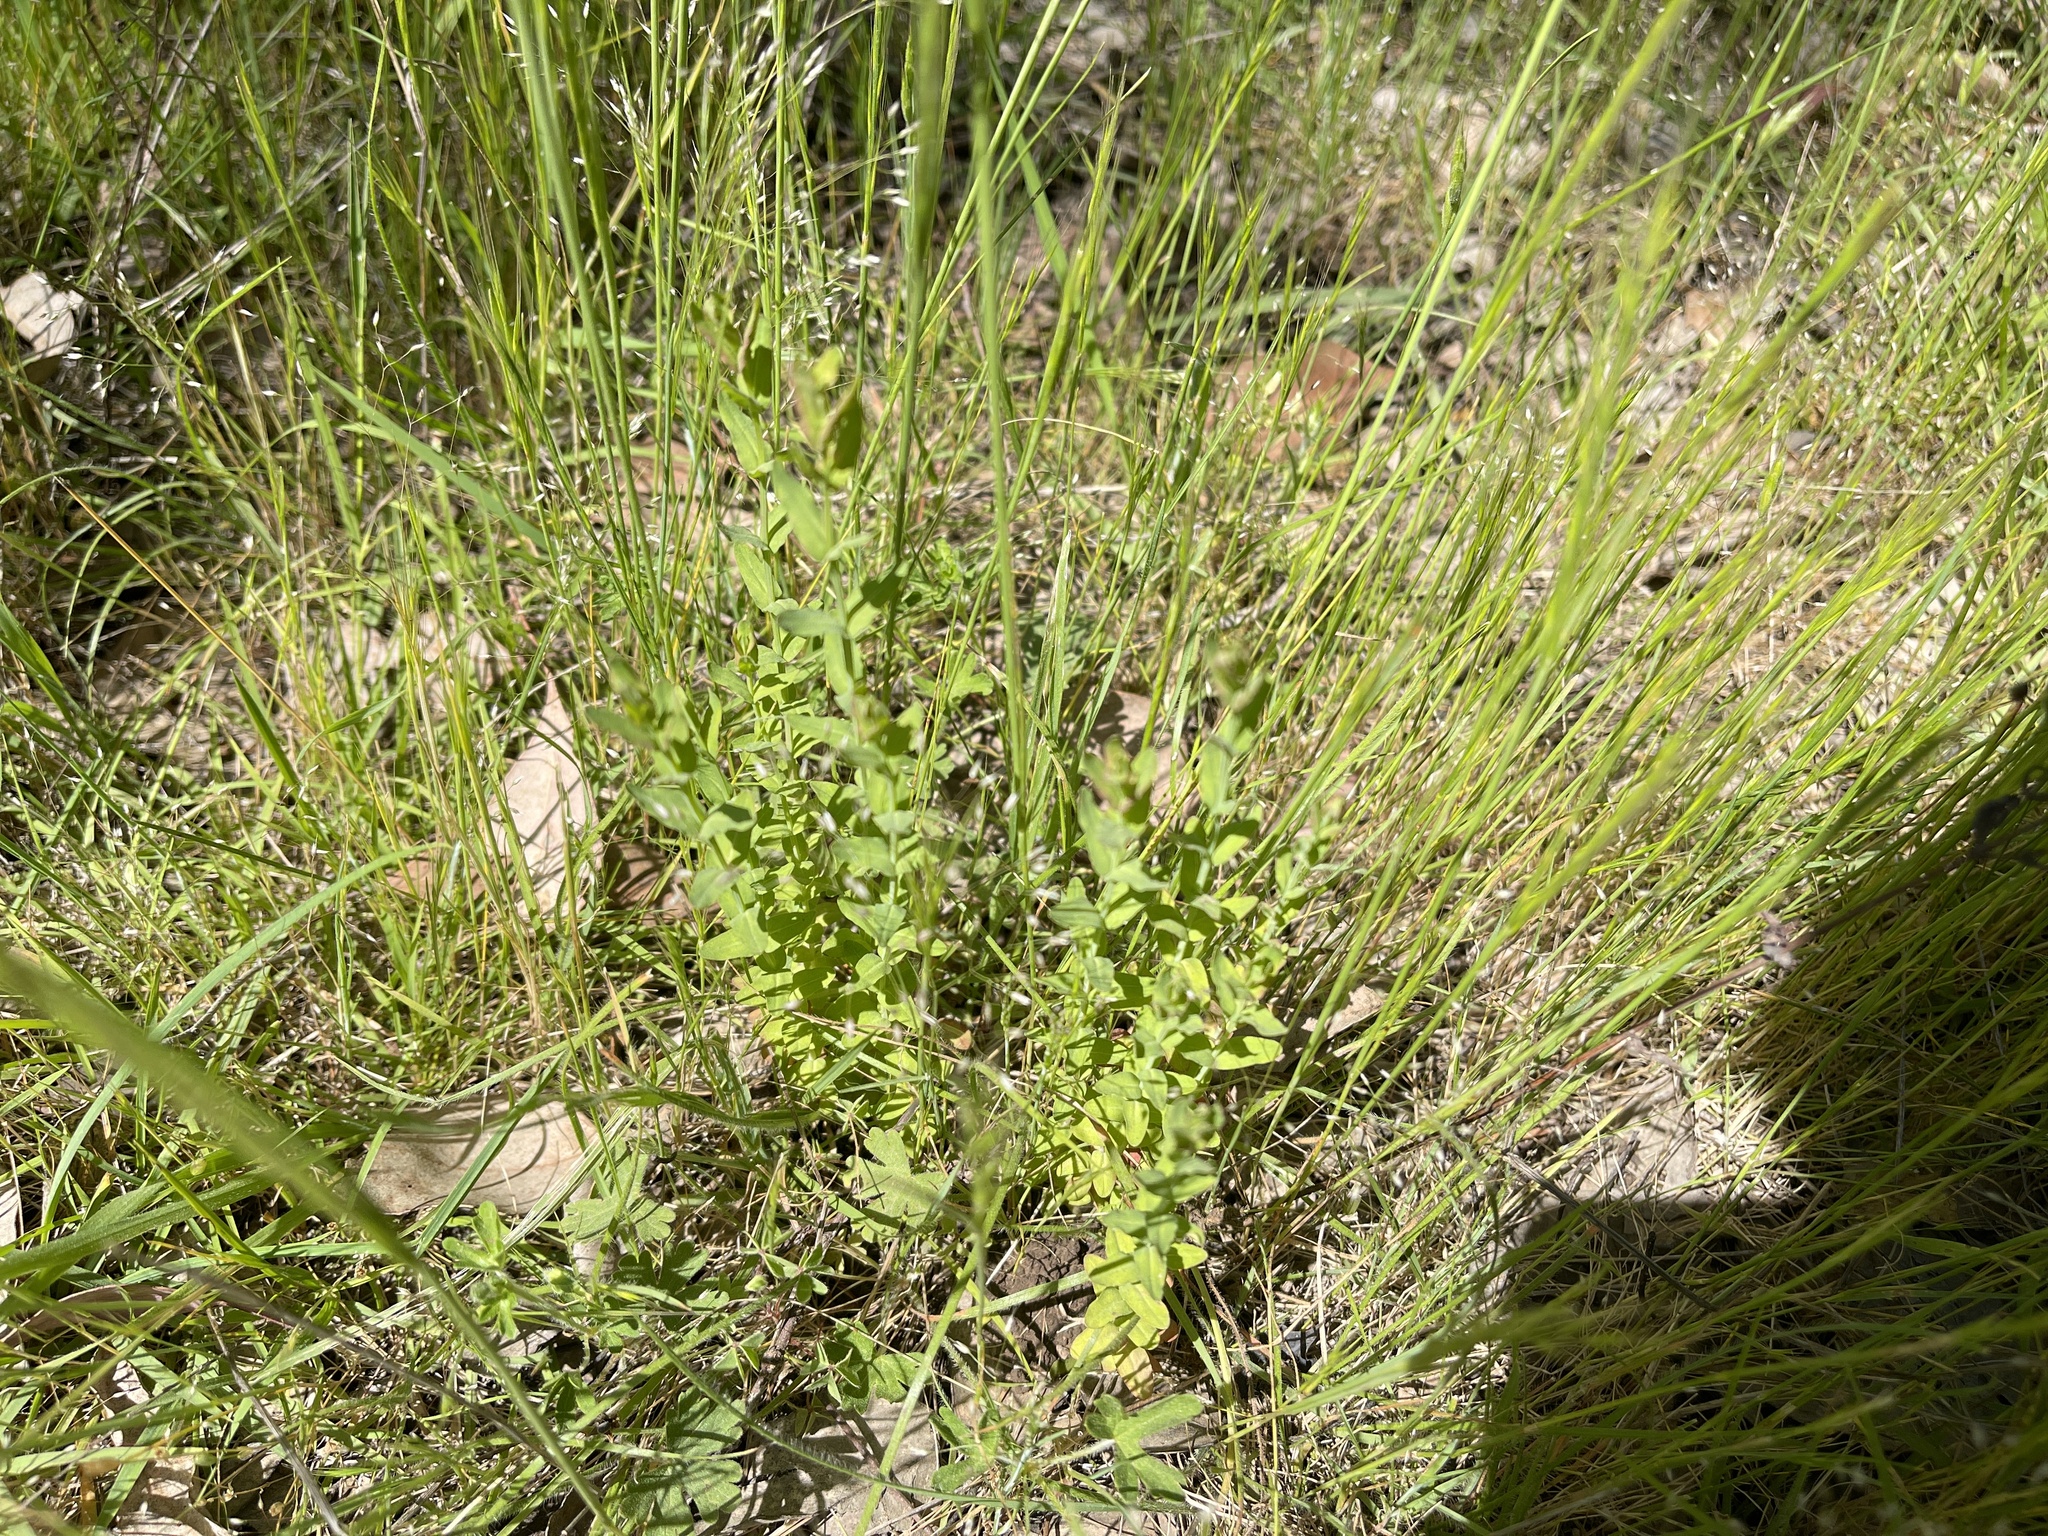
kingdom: Plantae
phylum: Tracheophyta
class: Magnoliopsida
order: Malpighiales
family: Hypericaceae
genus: Hypericum
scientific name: Hypericum gramineum
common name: Grassy st. johnswort
